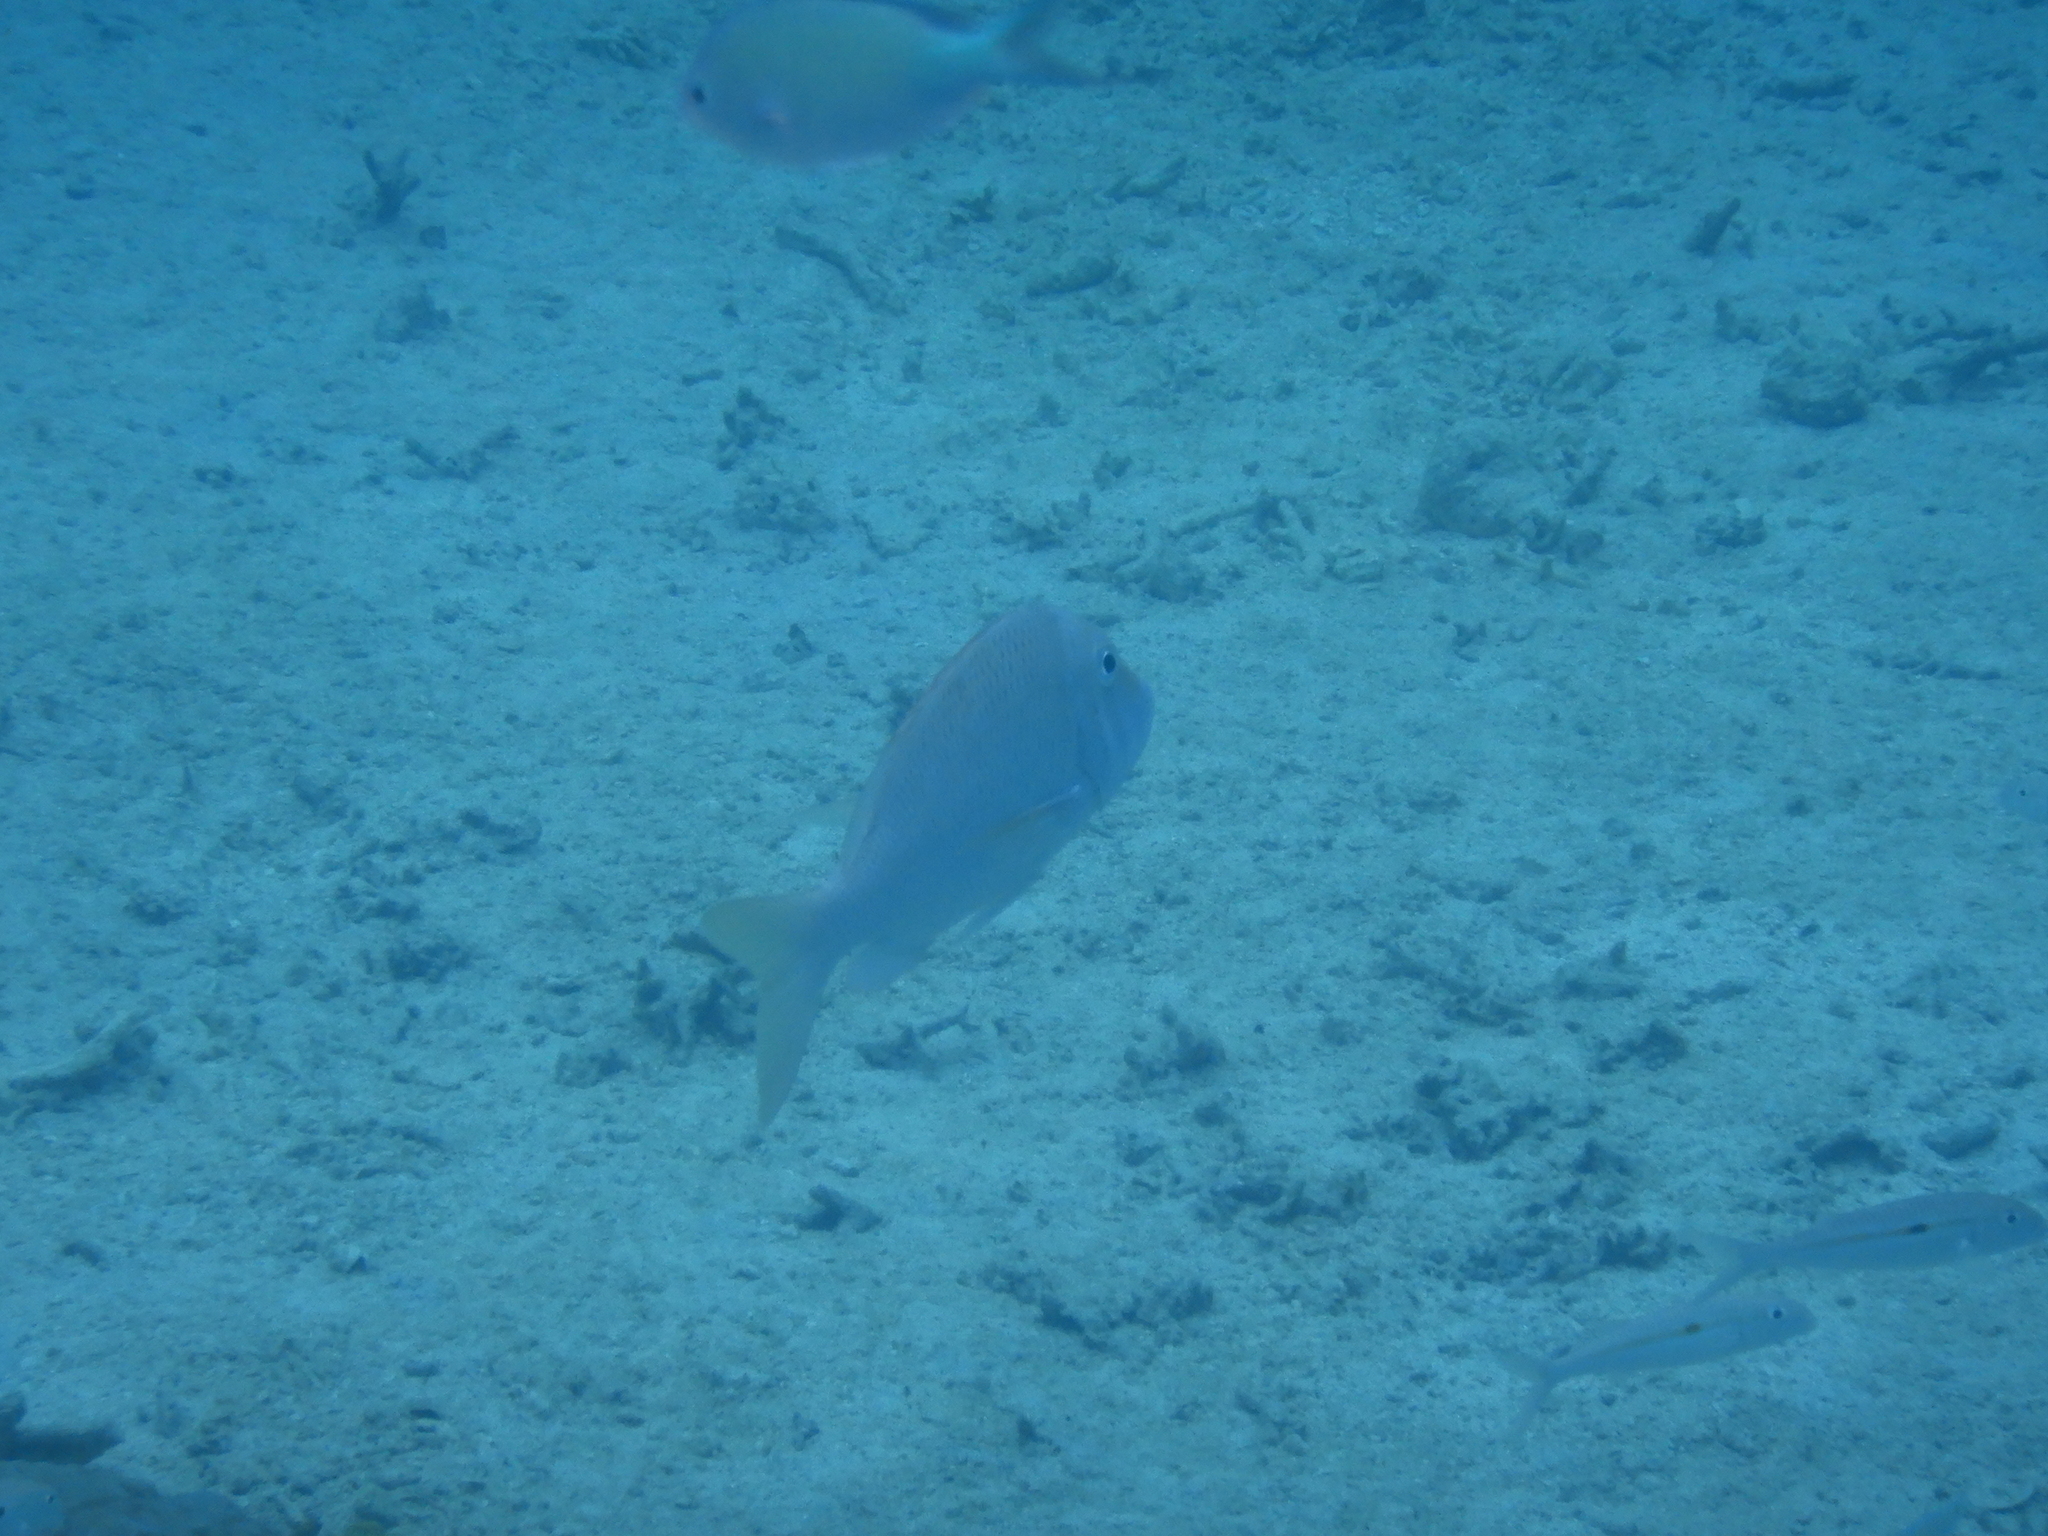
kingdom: Animalia
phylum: Chordata
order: Perciformes
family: Lethrinidae
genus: Lethrinus
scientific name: Lethrinus nebulosus
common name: Spangled emperor
